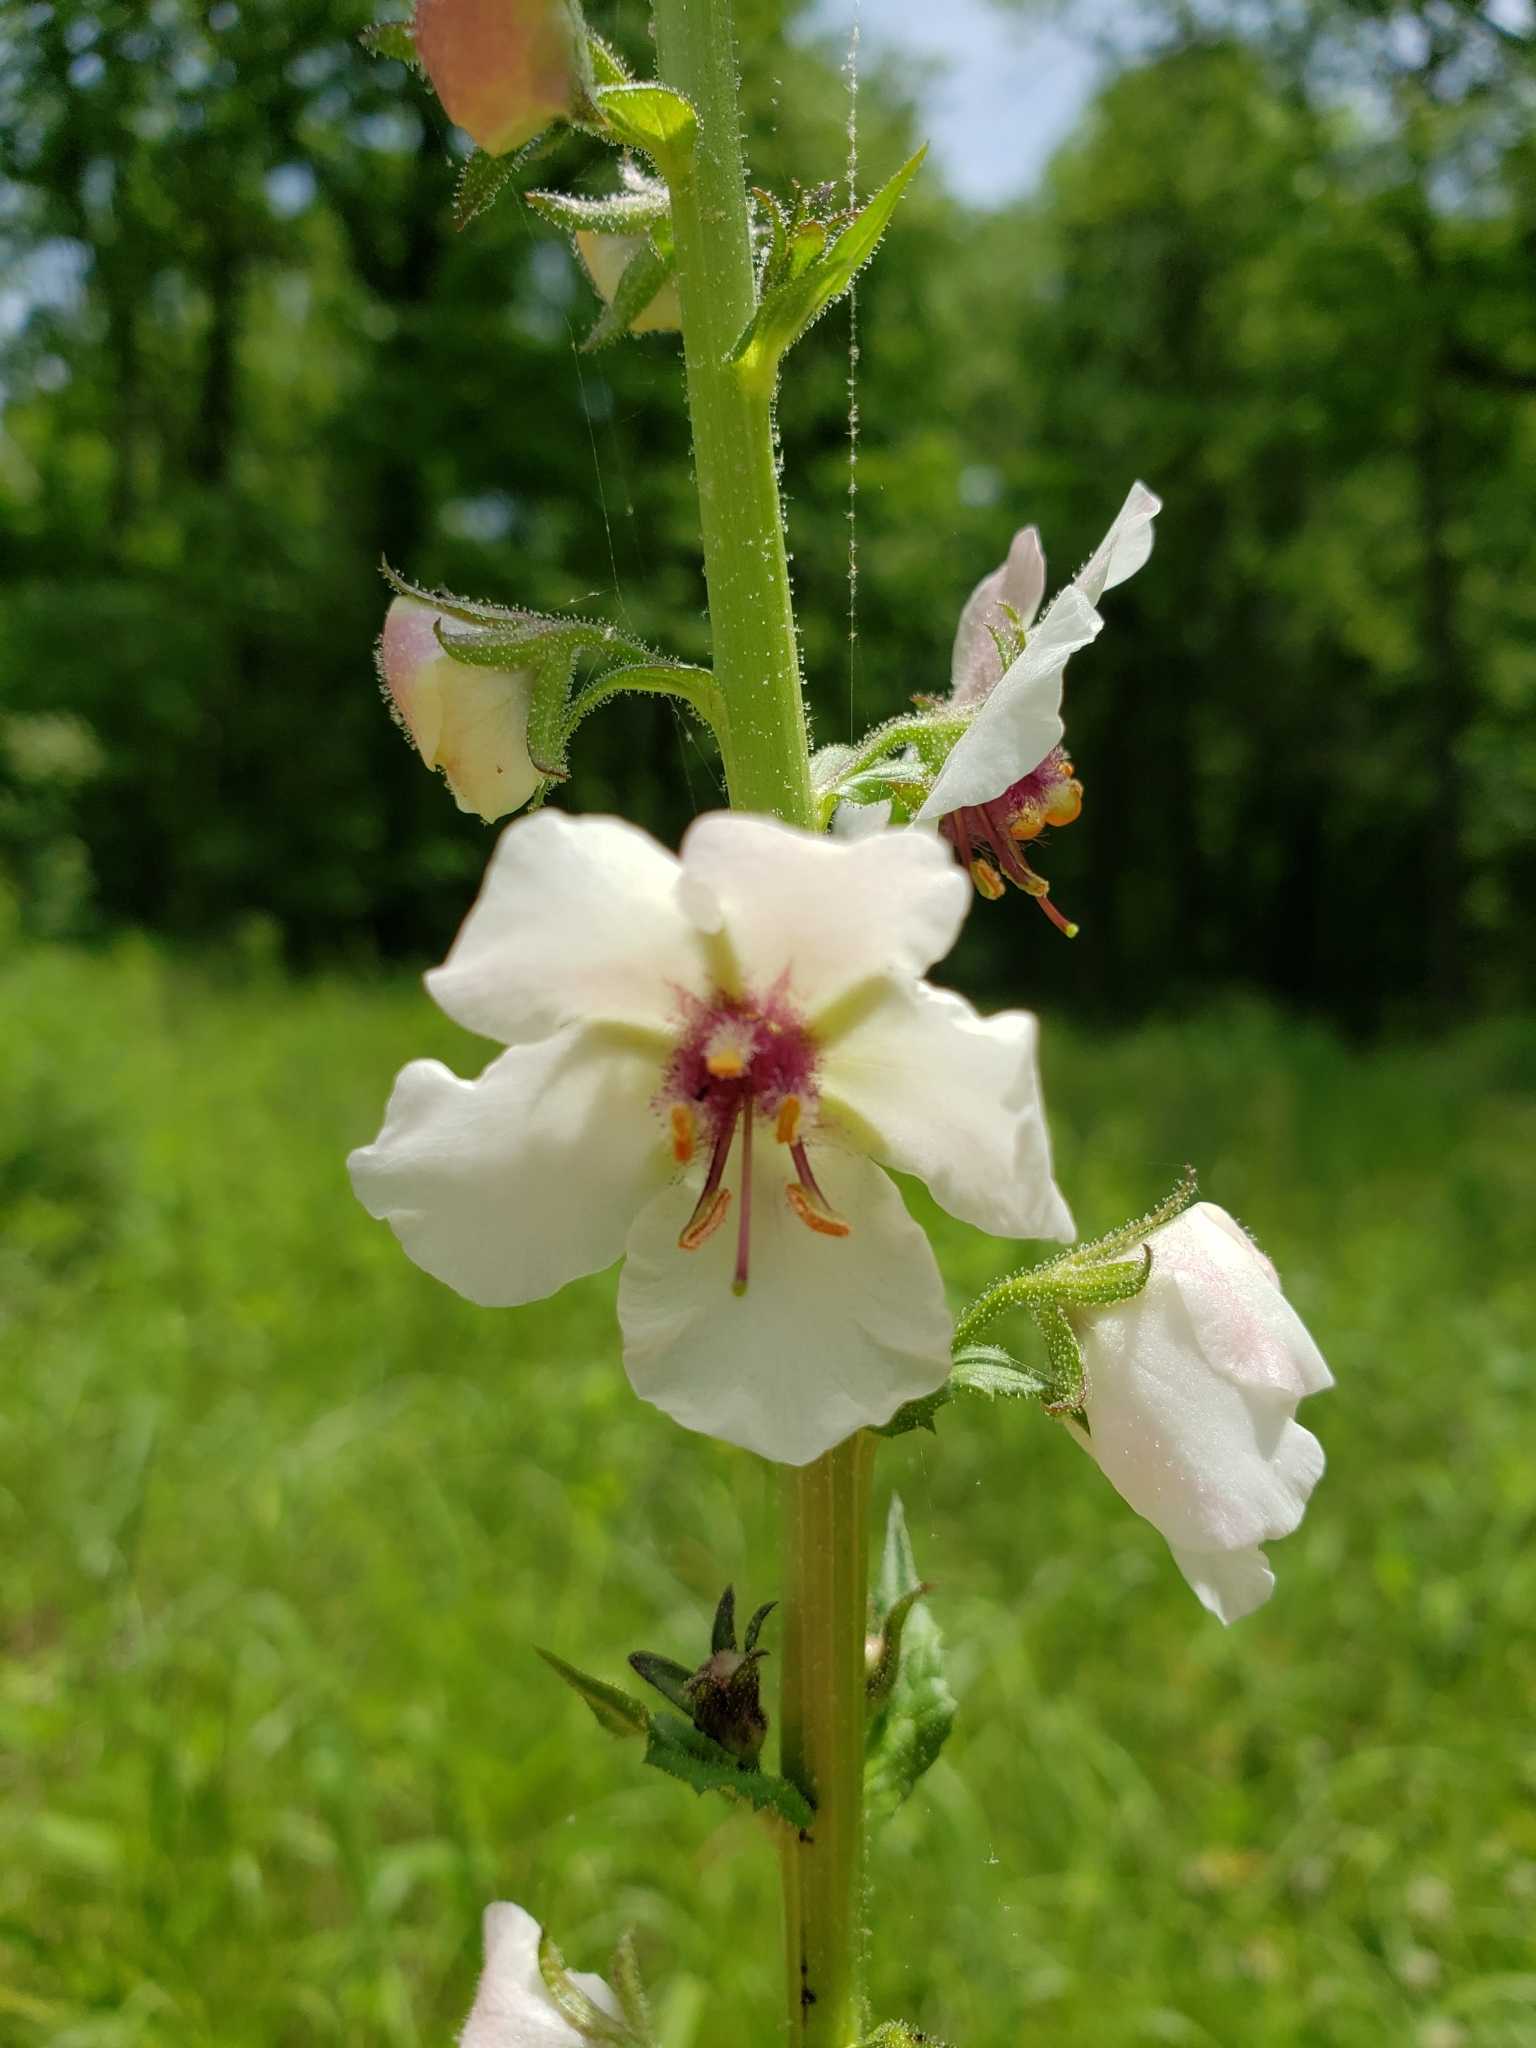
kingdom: Plantae
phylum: Tracheophyta
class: Magnoliopsida
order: Lamiales
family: Scrophulariaceae
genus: Verbascum
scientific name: Verbascum blattaria
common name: Moth mullein
